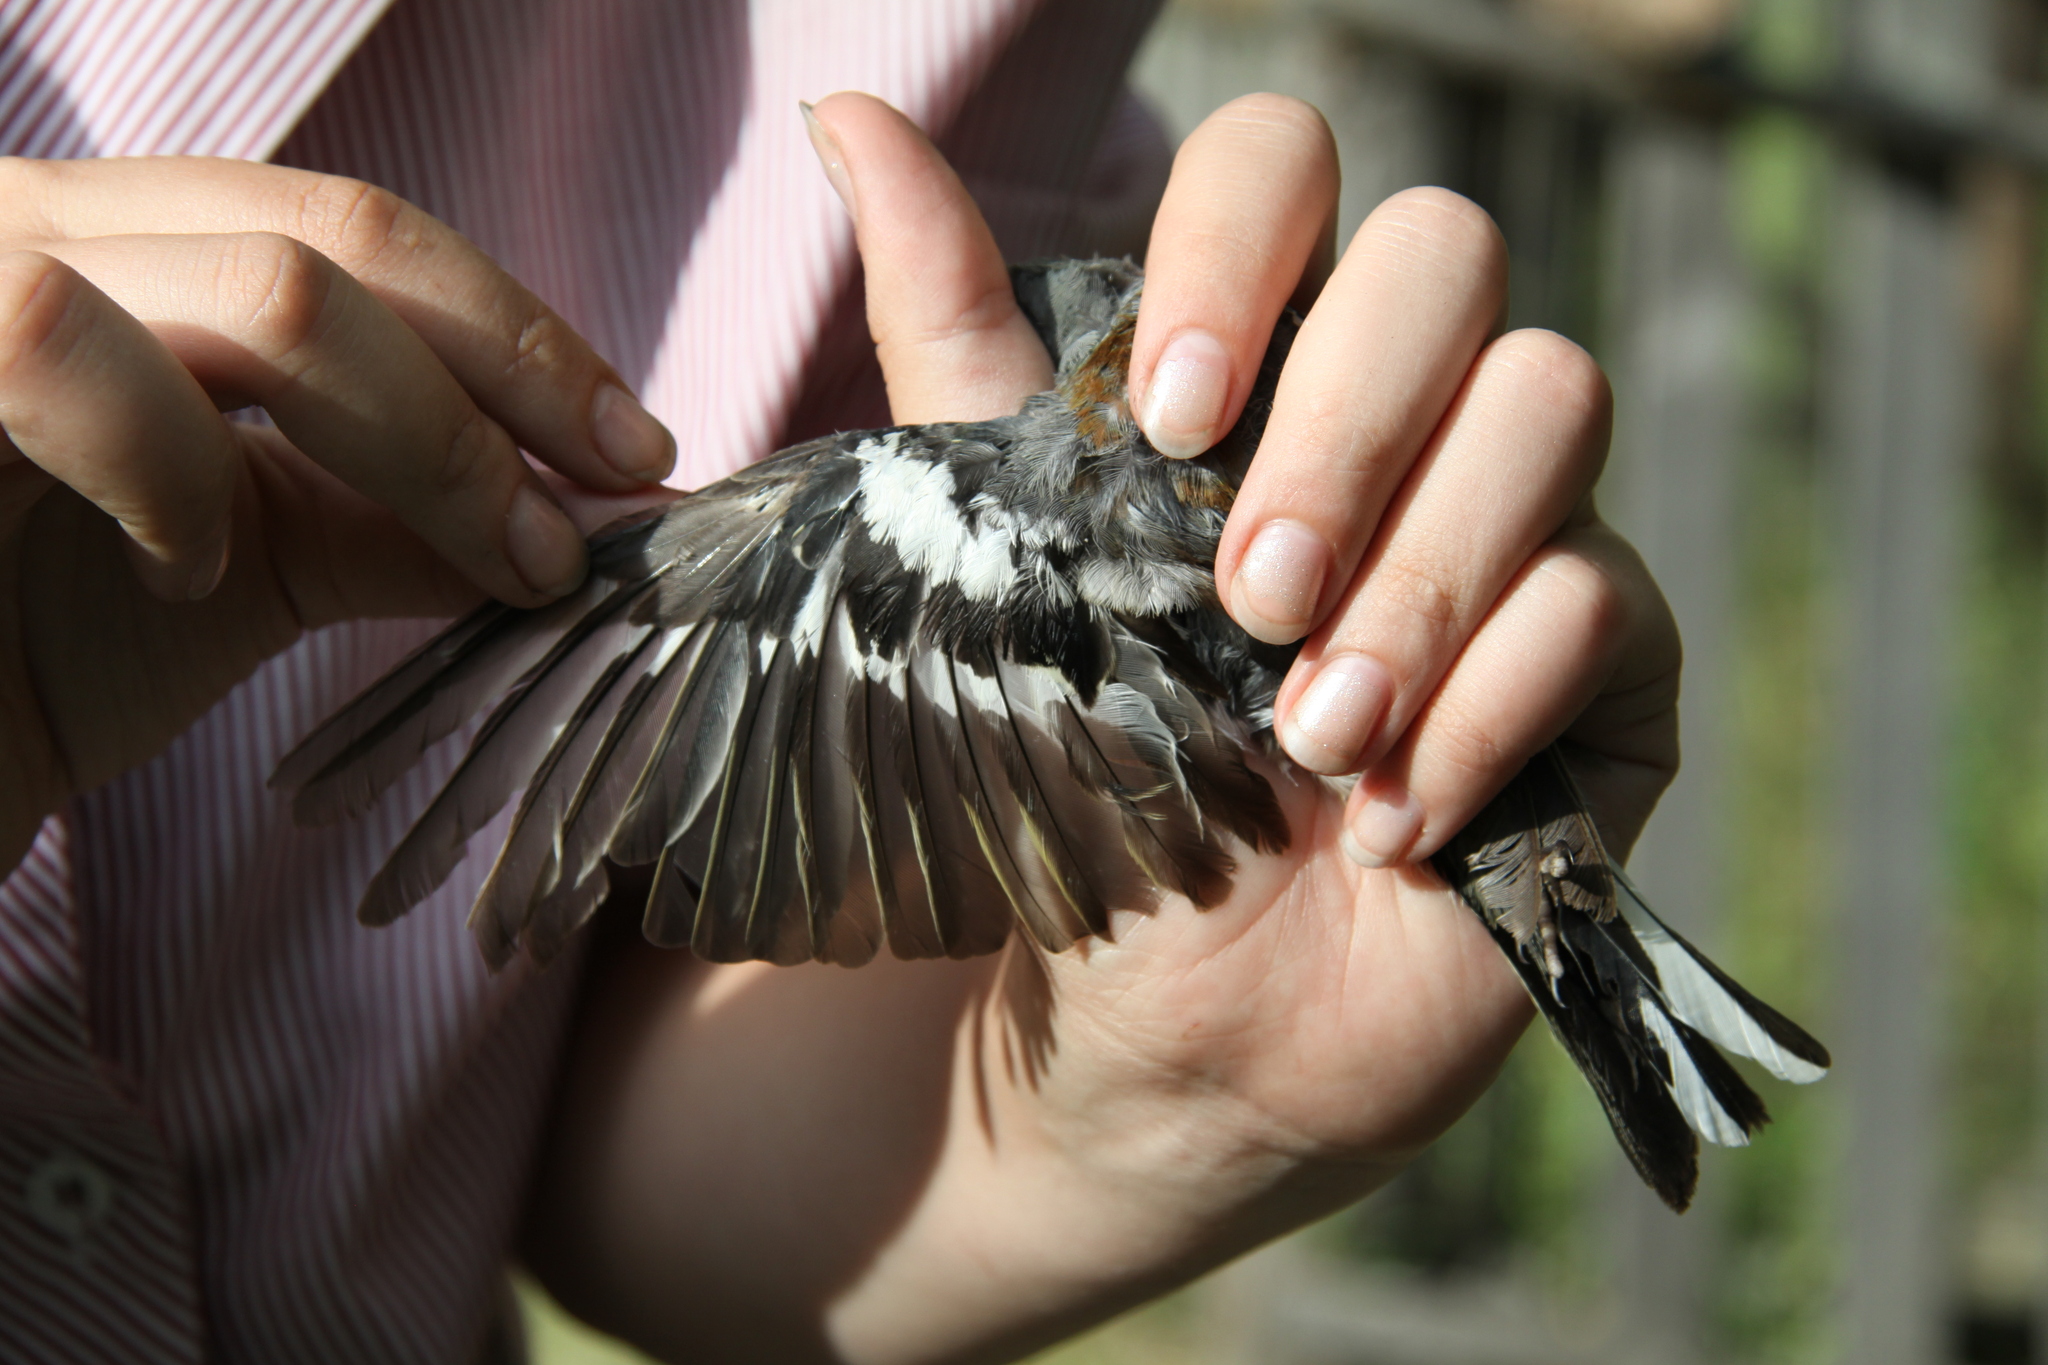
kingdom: Animalia
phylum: Chordata
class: Aves
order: Passeriformes
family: Fringillidae
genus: Fringilla
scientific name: Fringilla coelebs
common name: Common chaffinch
